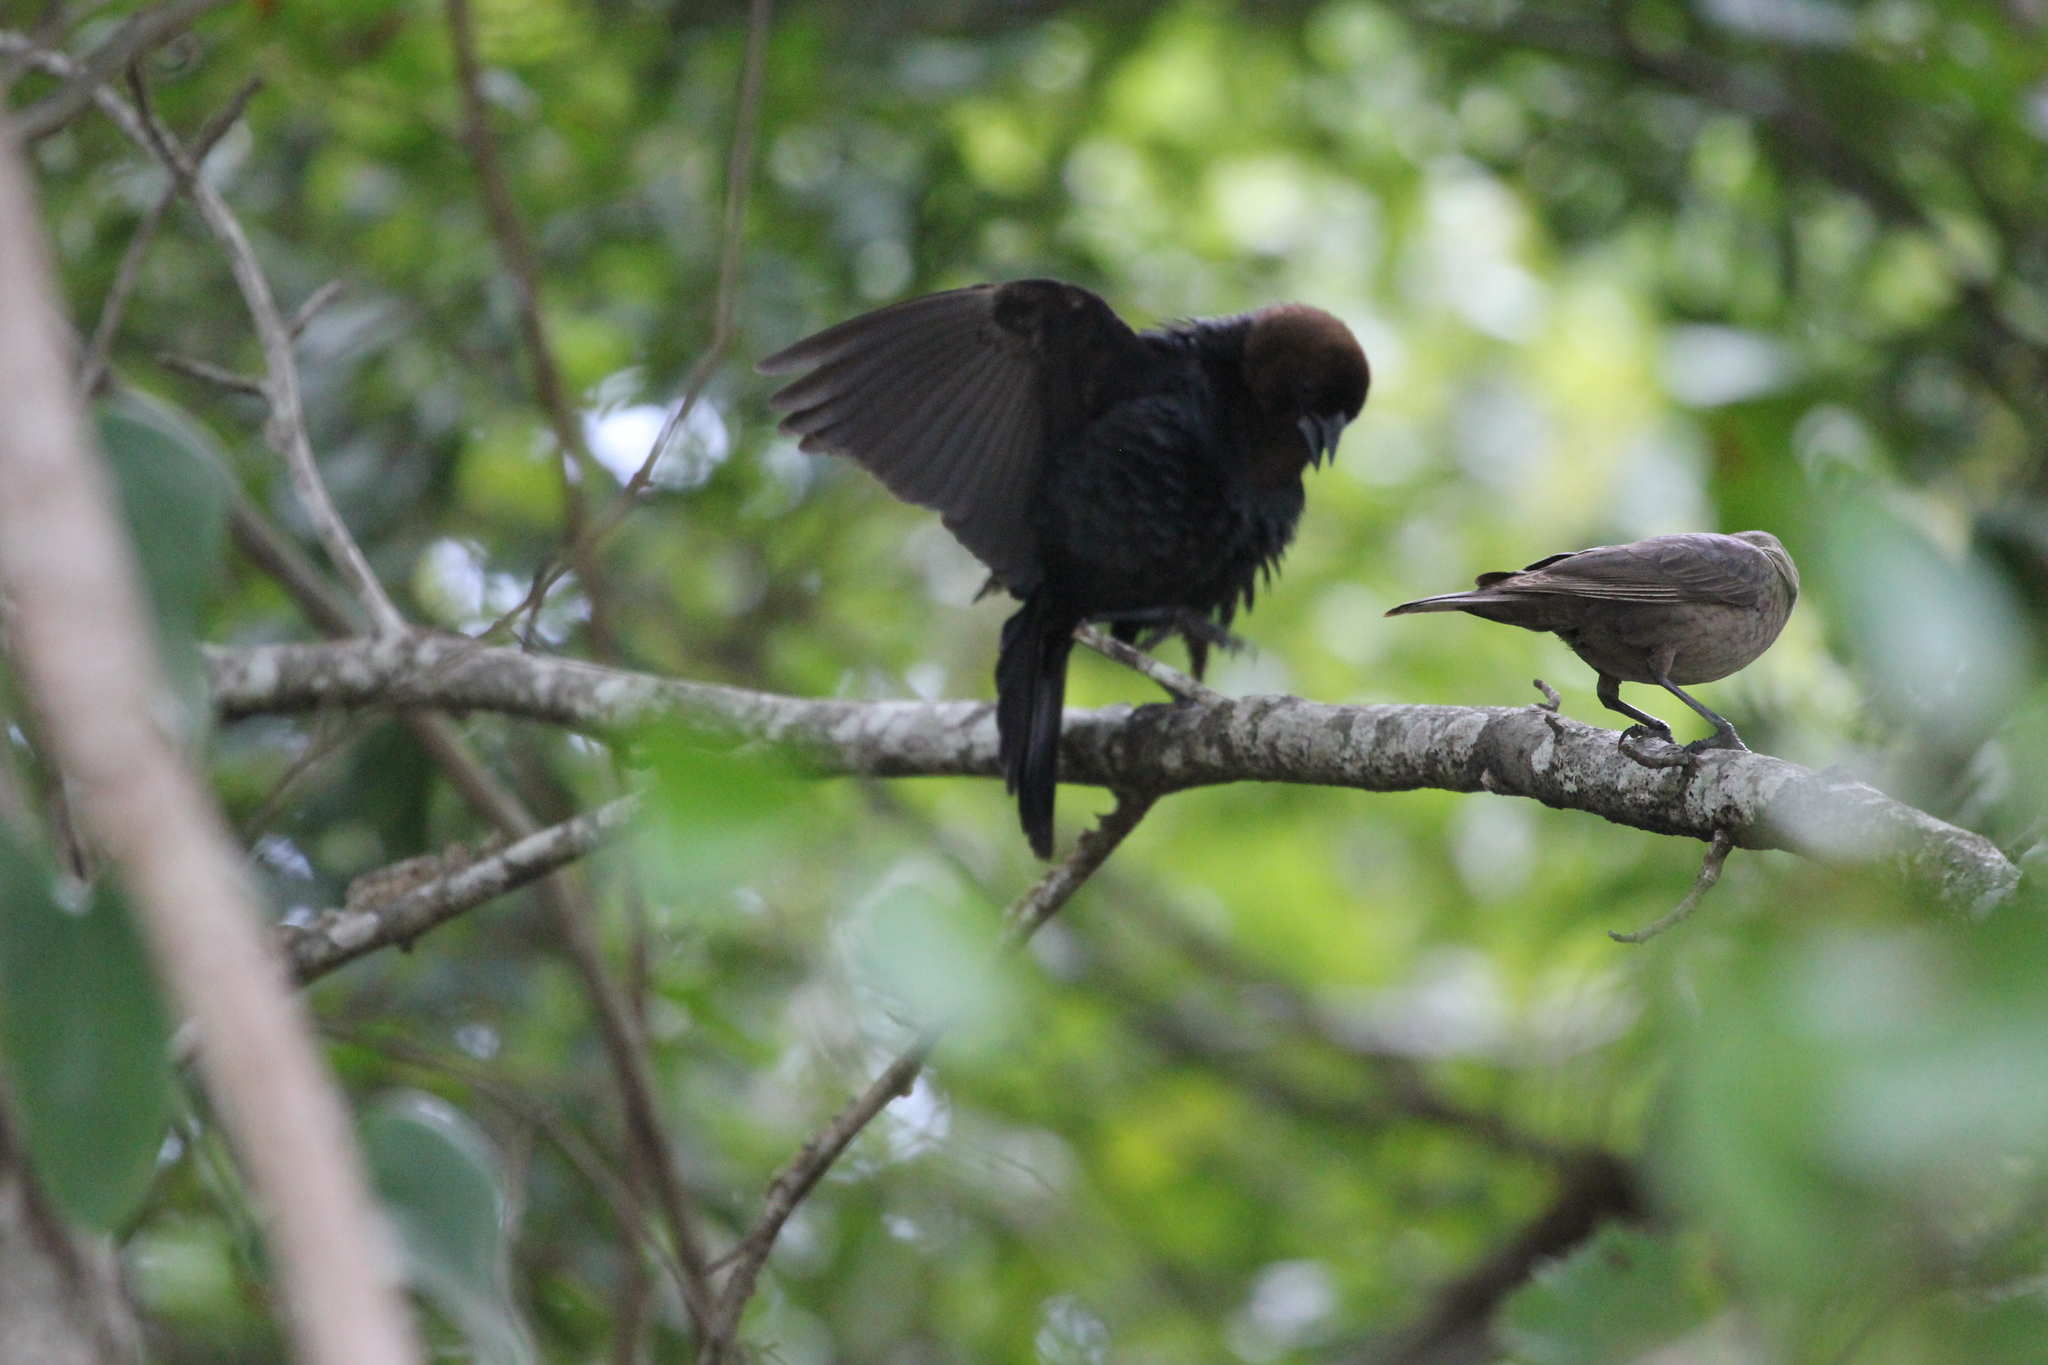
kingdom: Animalia
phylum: Chordata
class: Aves
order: Passeriformes
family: Icteridae
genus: Molothrus
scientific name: Molothrus ater
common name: Brown-headed cowbird
